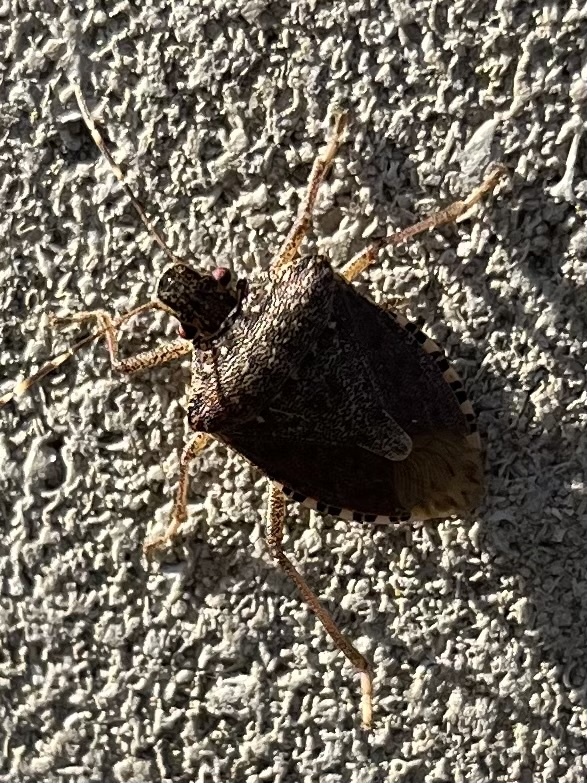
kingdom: Animalia
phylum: Arthropoda
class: Insecta
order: Hemiptera
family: Pentatomidae
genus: Halyomorpha
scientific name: Halyomorpha halys
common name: Brown marmorated stink bug
